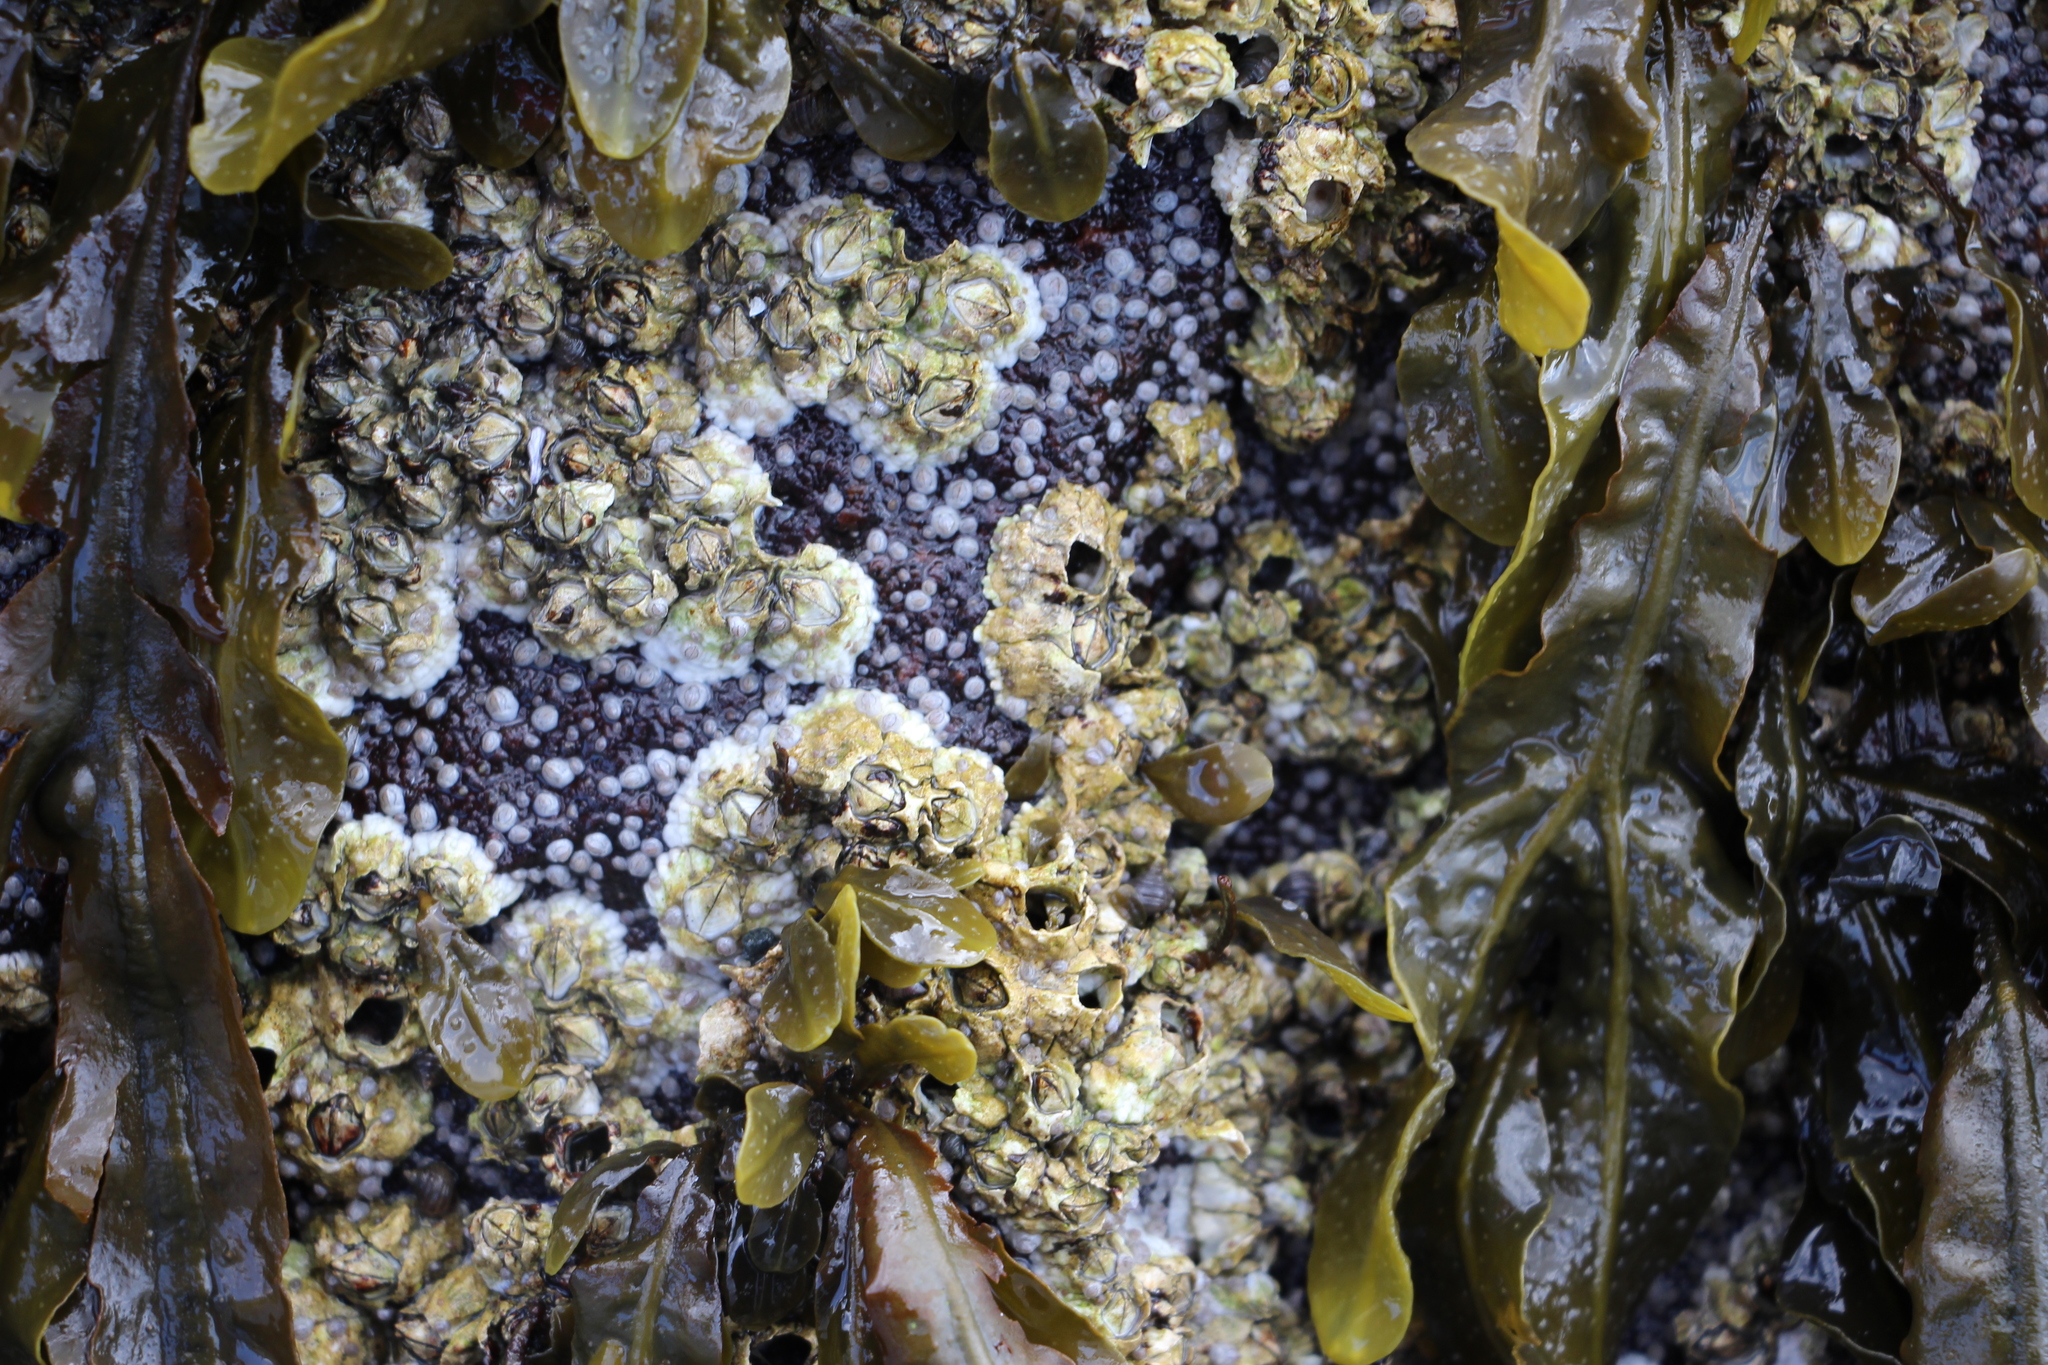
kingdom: Animalia
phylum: Arthropoda
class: Maxillopoda
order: Sessilia
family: Archaeobalanidae
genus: Semibalanus
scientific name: Semibalanus balanoides
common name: Acorn barnacle
